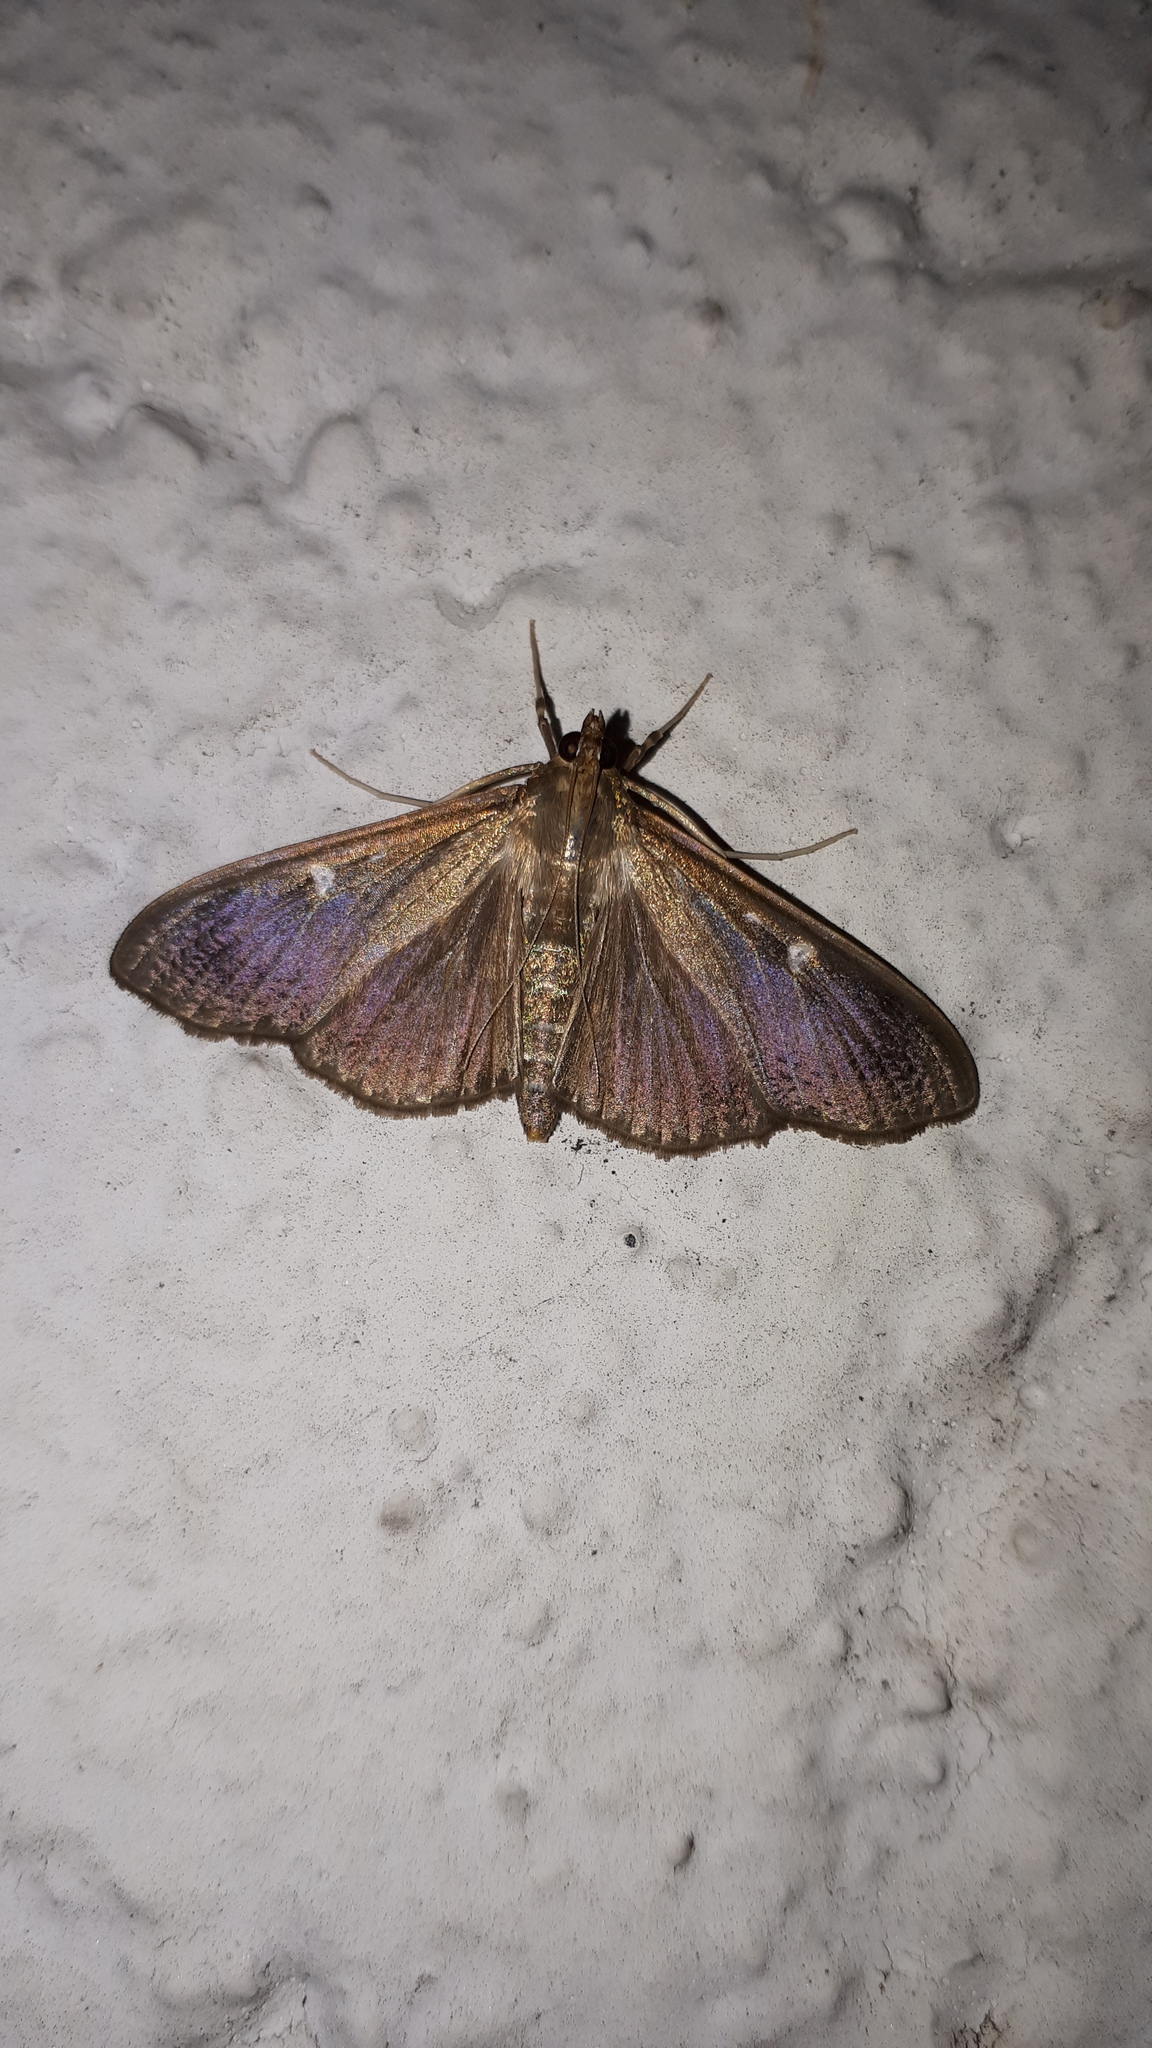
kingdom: Animalia
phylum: Arthropoda
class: Insecta
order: Lepidoptera
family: Crambidae
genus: Cydalima
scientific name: Cydalima perspectalis
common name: Box tree moth
